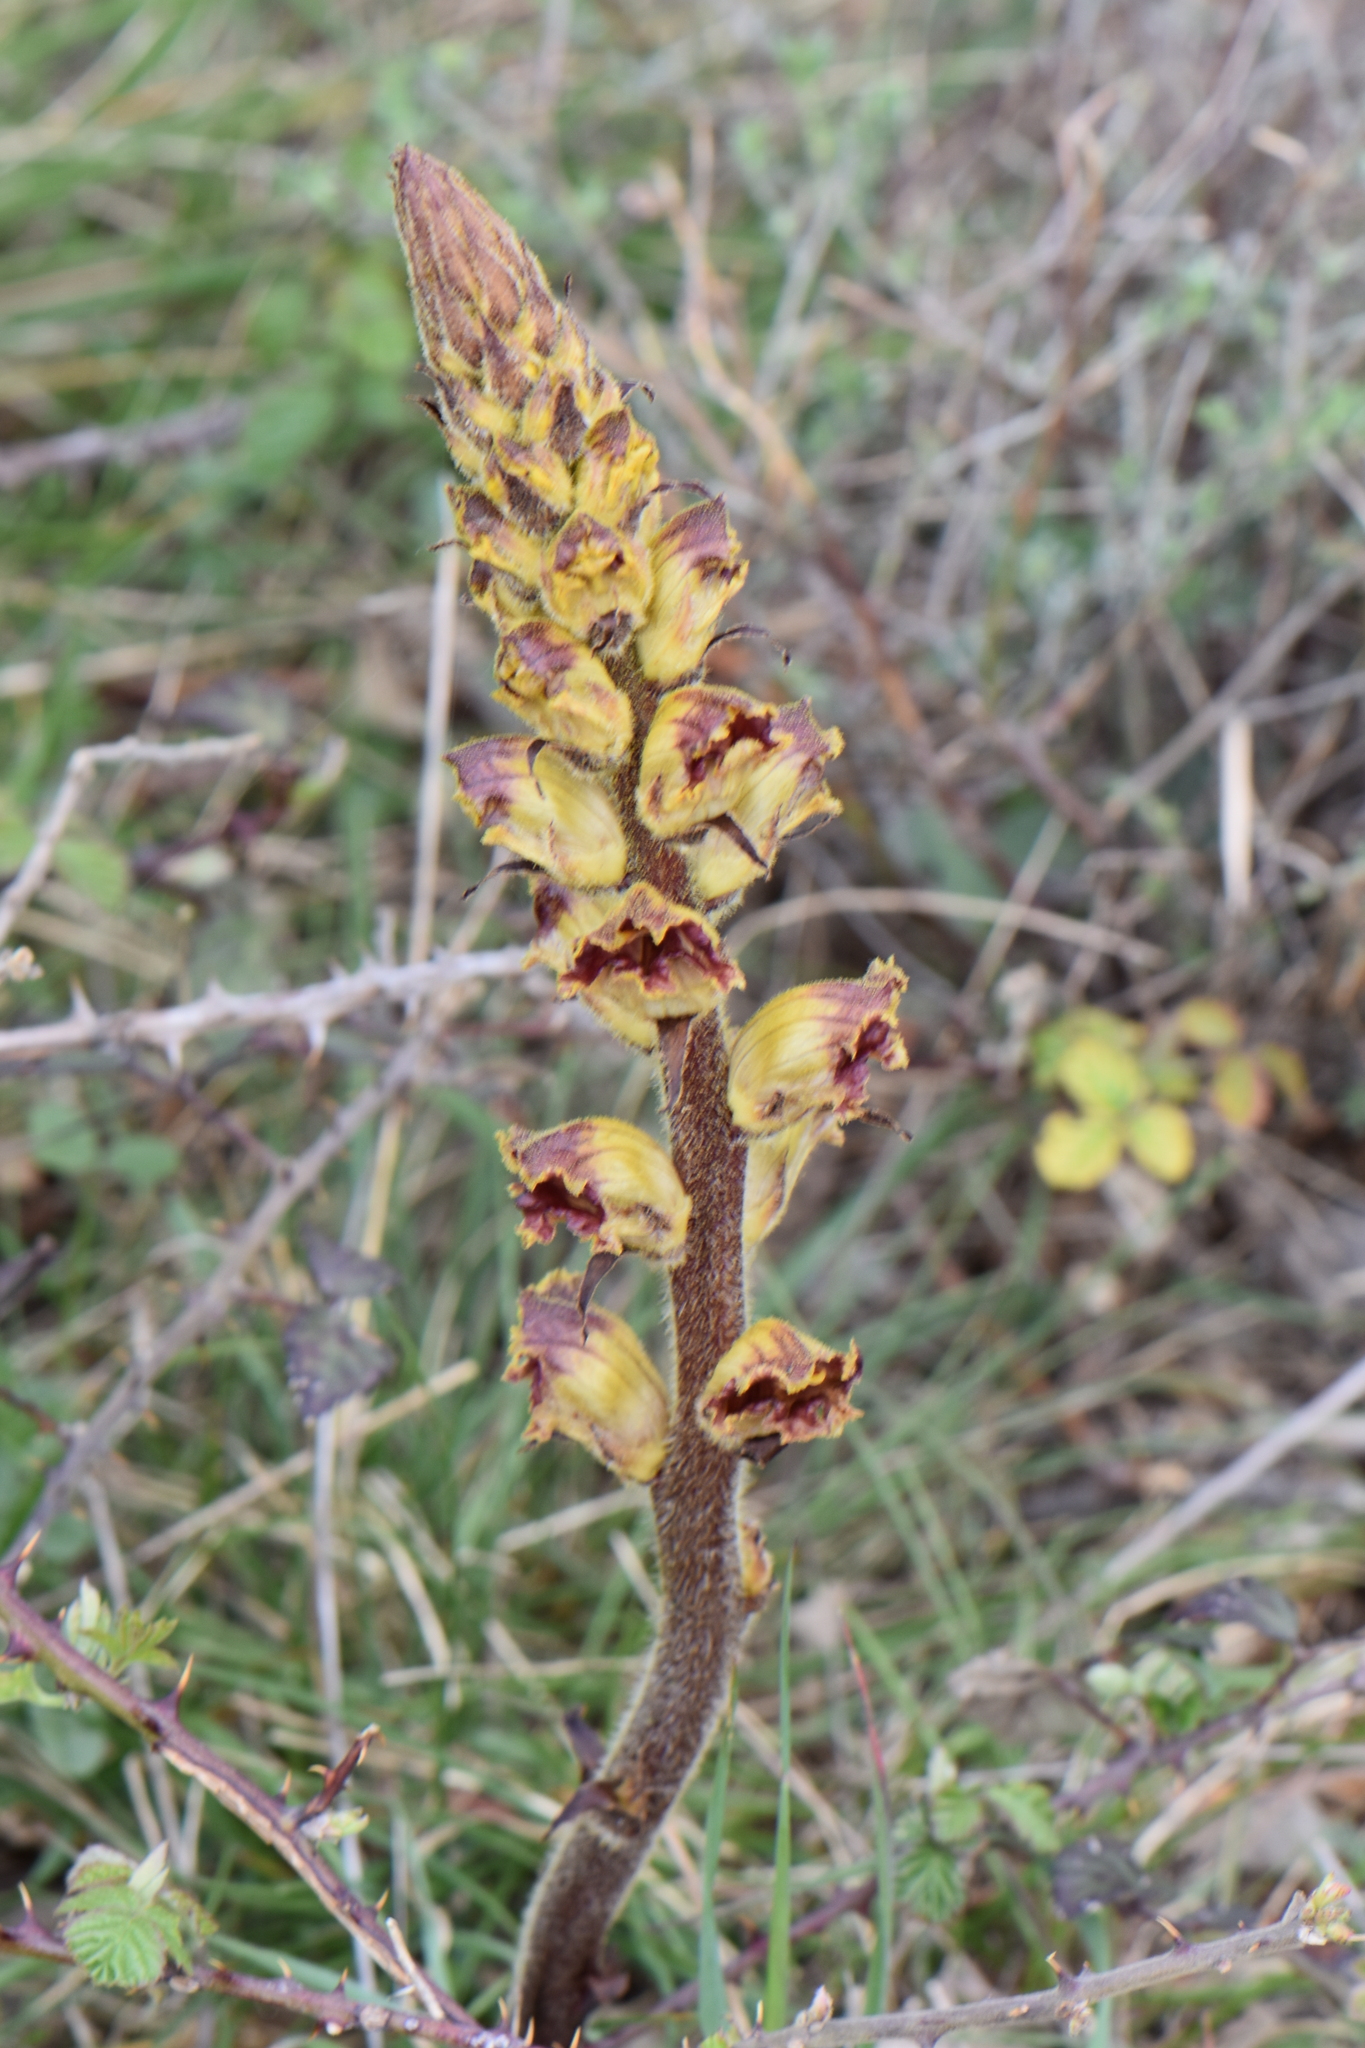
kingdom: Plantae
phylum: Tracheophyta
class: Magnoliopsida
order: Lamiales
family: Orobanchaceae
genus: Orobanche
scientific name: Orobanche gracilis
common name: Slender broomrape
